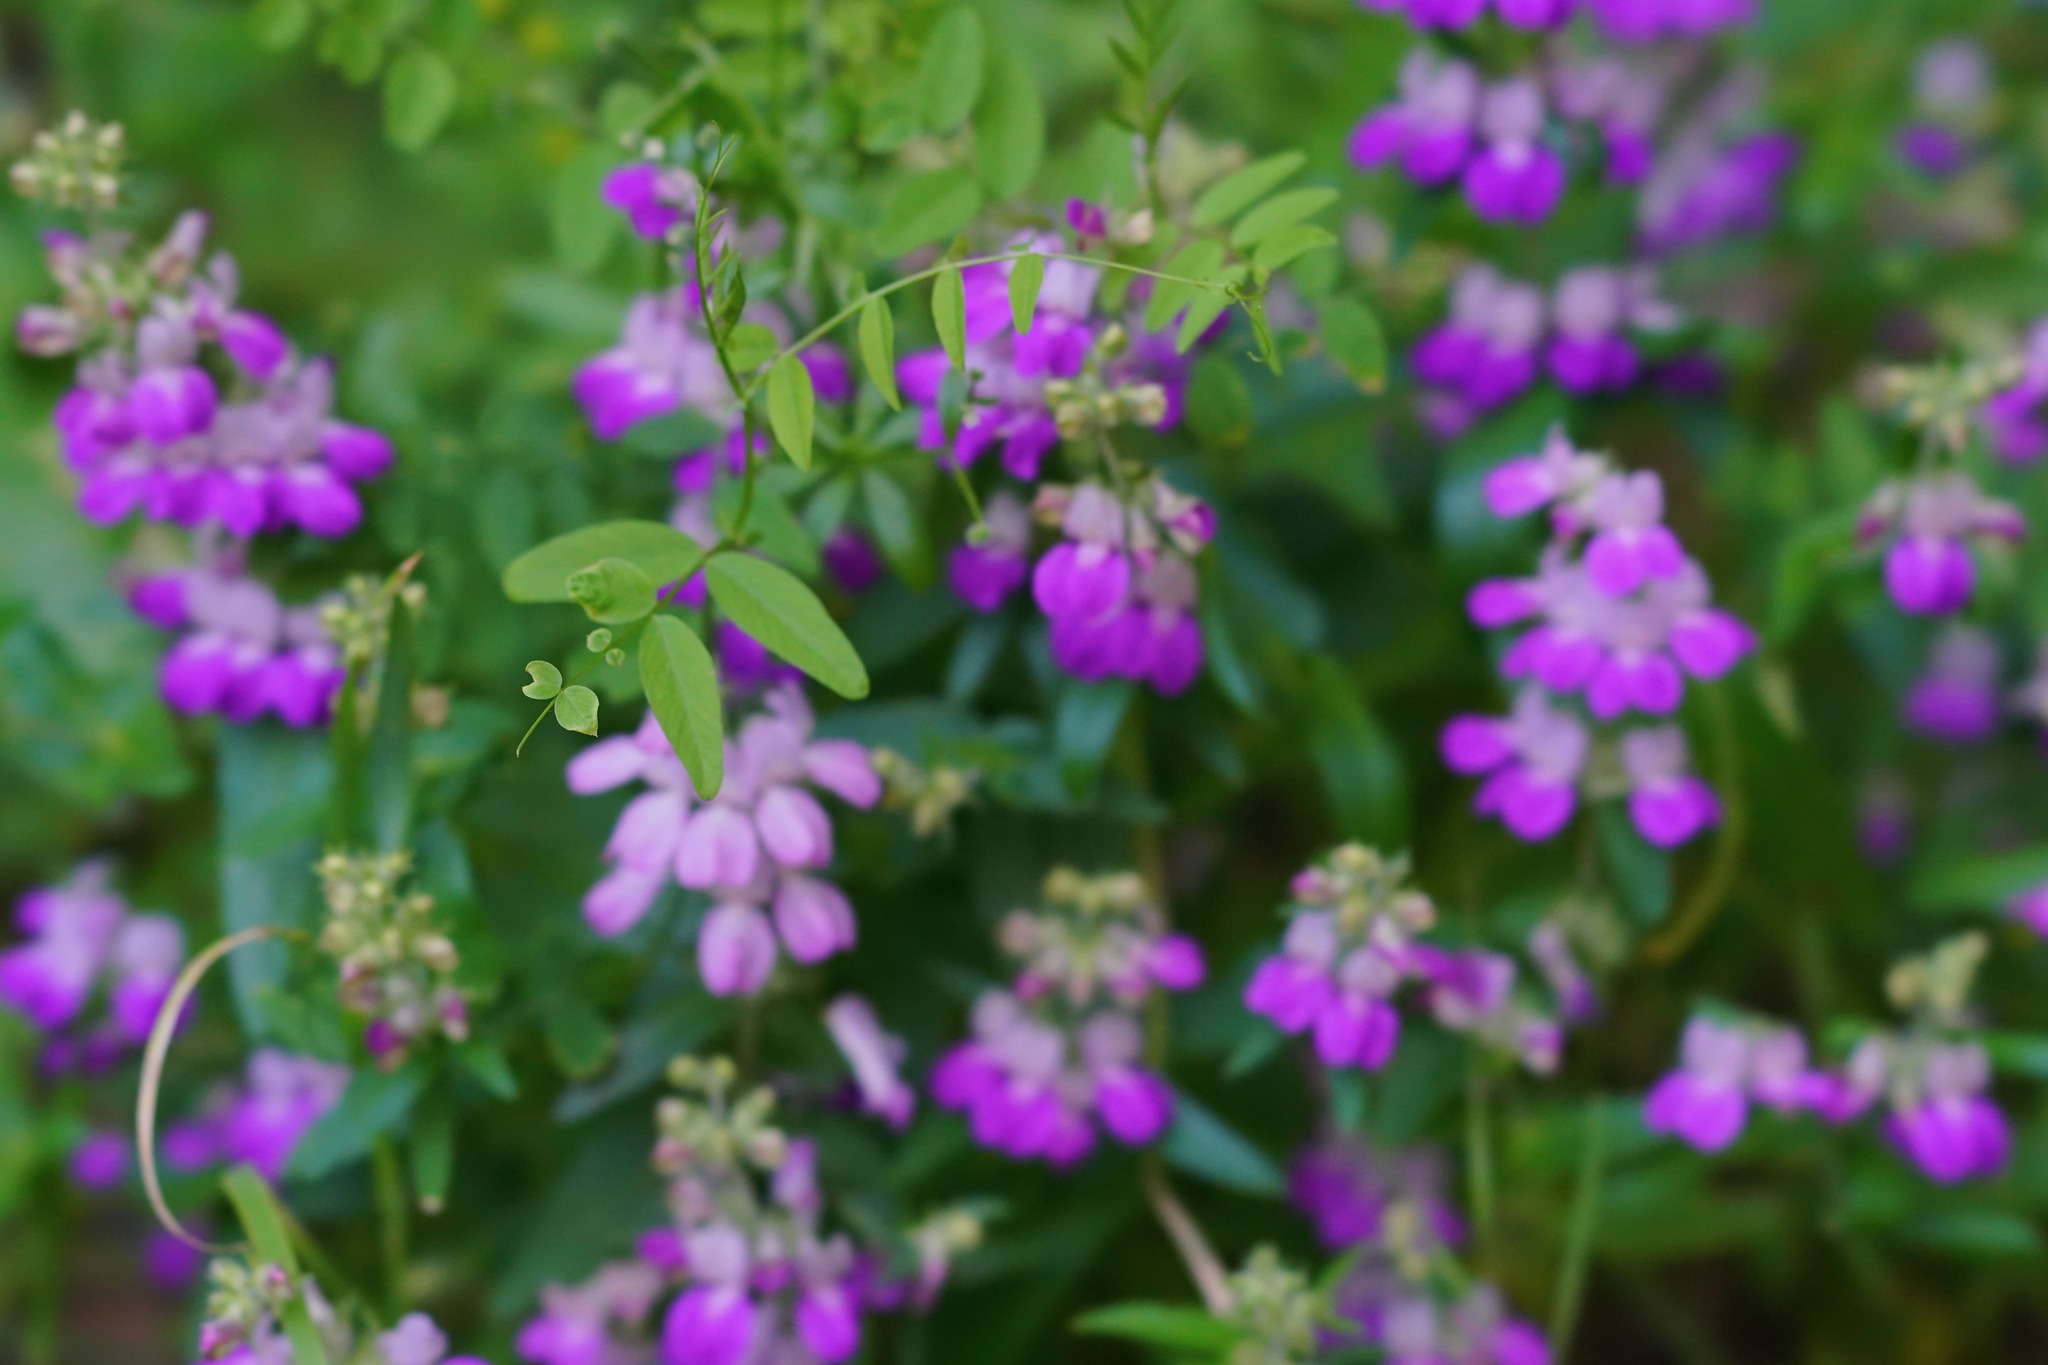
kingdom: Plantae
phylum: Tracheophyta
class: Magnoliopsida
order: Lamiales
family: Plantaginaceae
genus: Collinsia
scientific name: Collinsia heterophylla
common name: Chinese-houses
